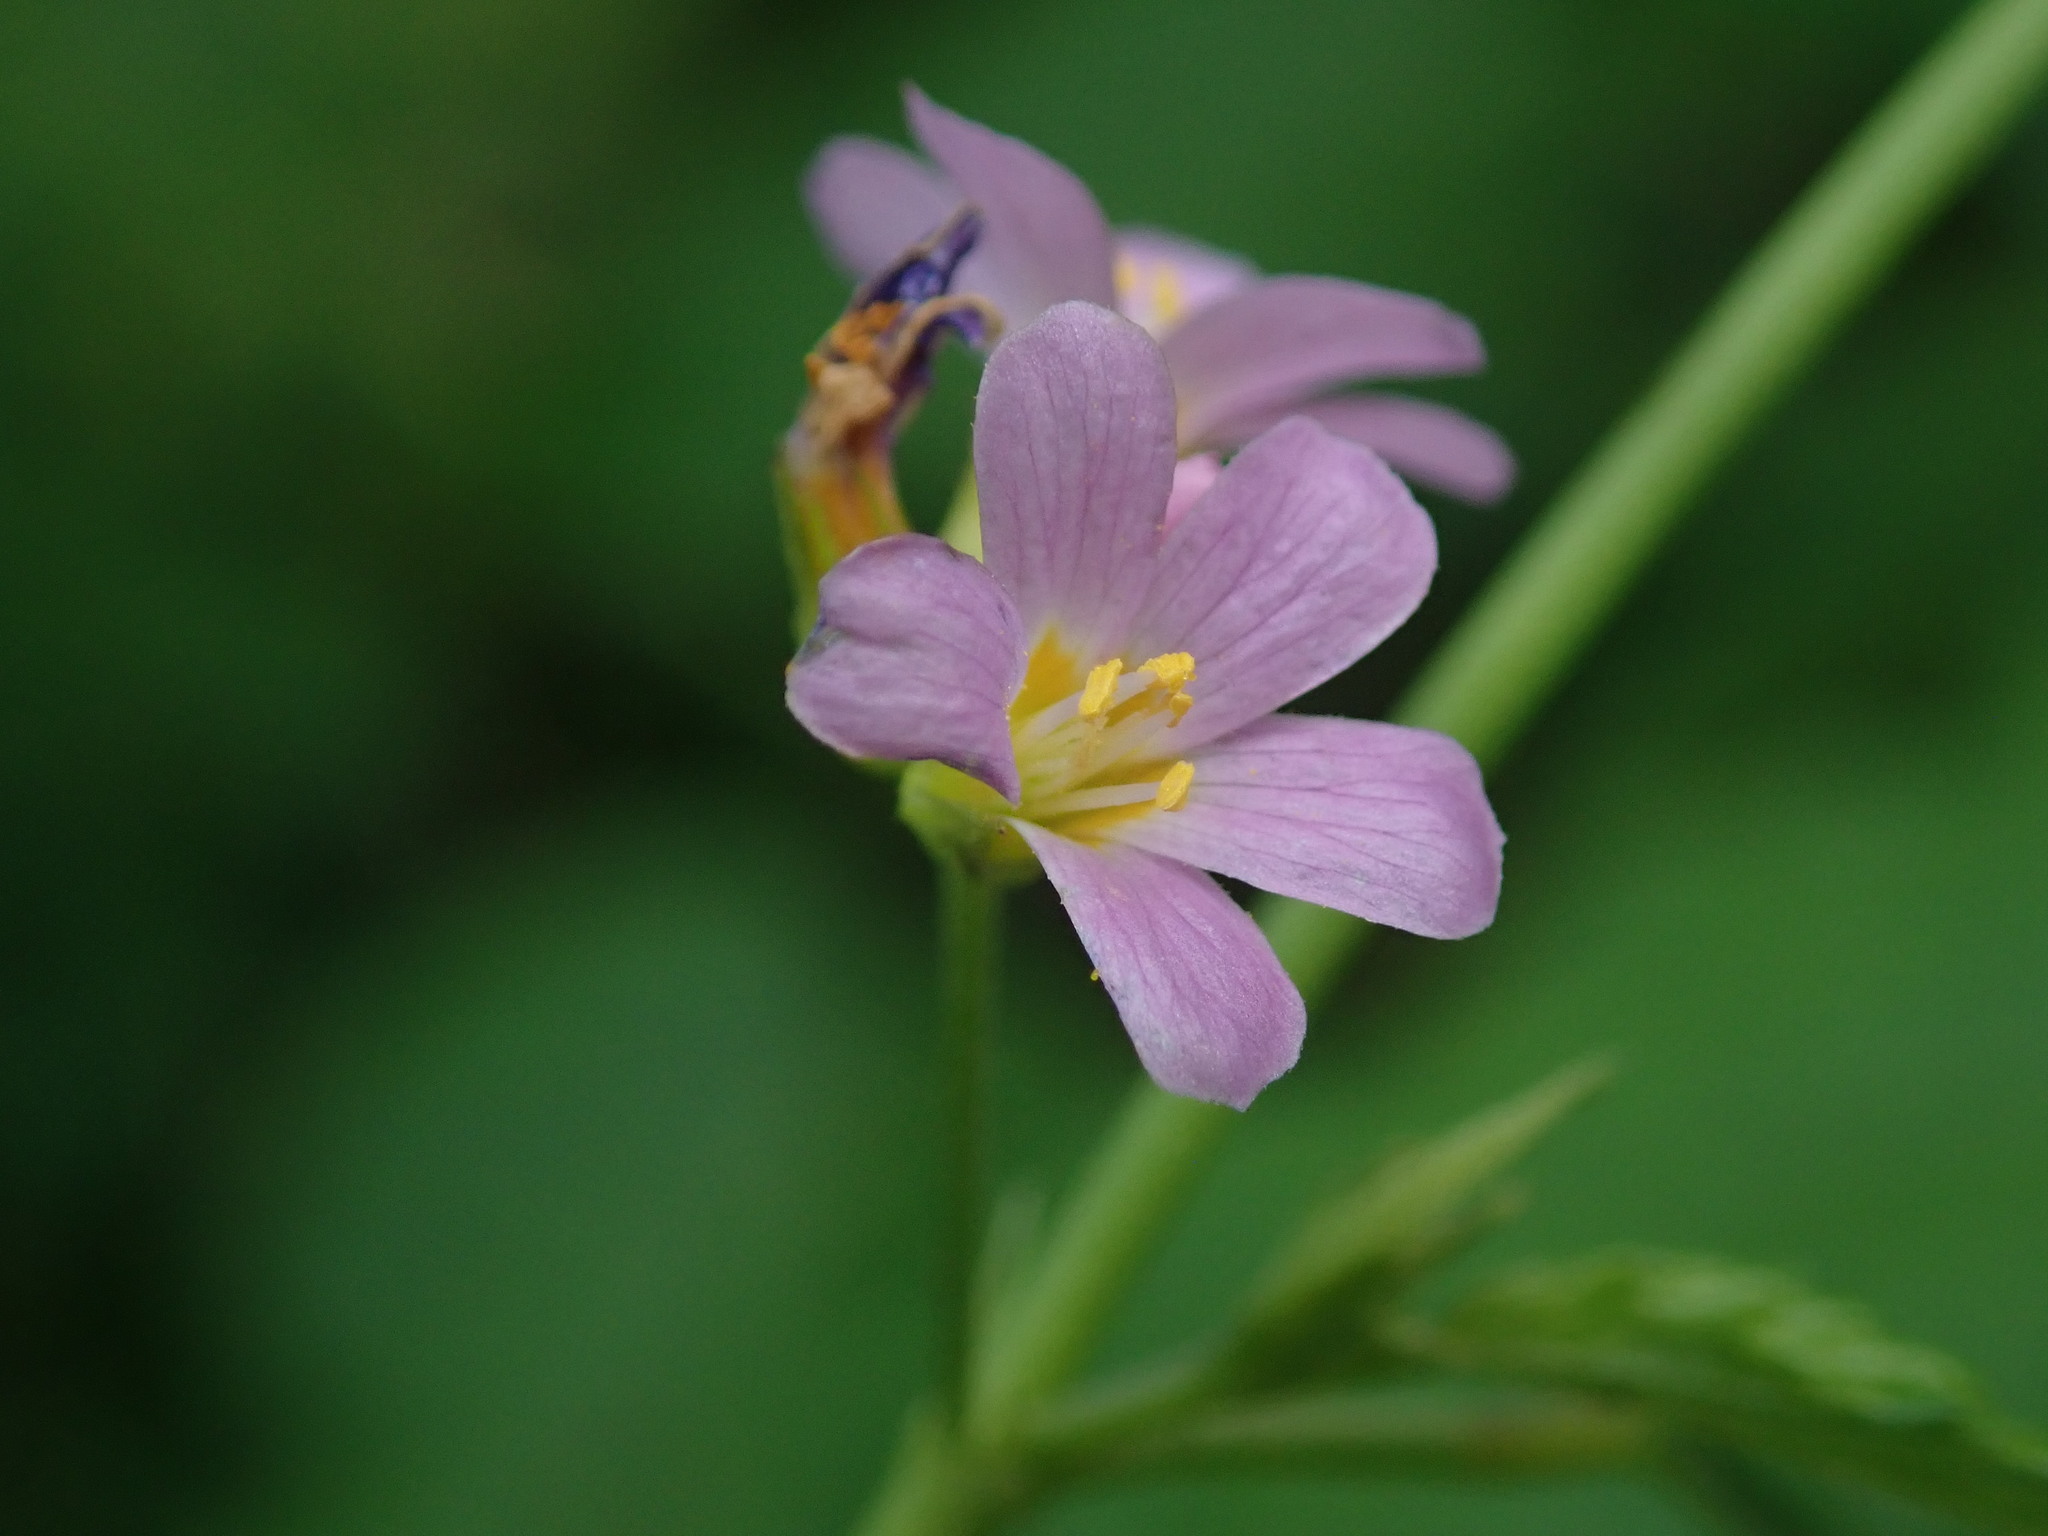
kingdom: Plantae
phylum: Tracheophyta
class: Magnoliopsida
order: Malvales
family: Malvaceae
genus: Melochia
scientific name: Melochia pyramidata
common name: Pyramidflower
